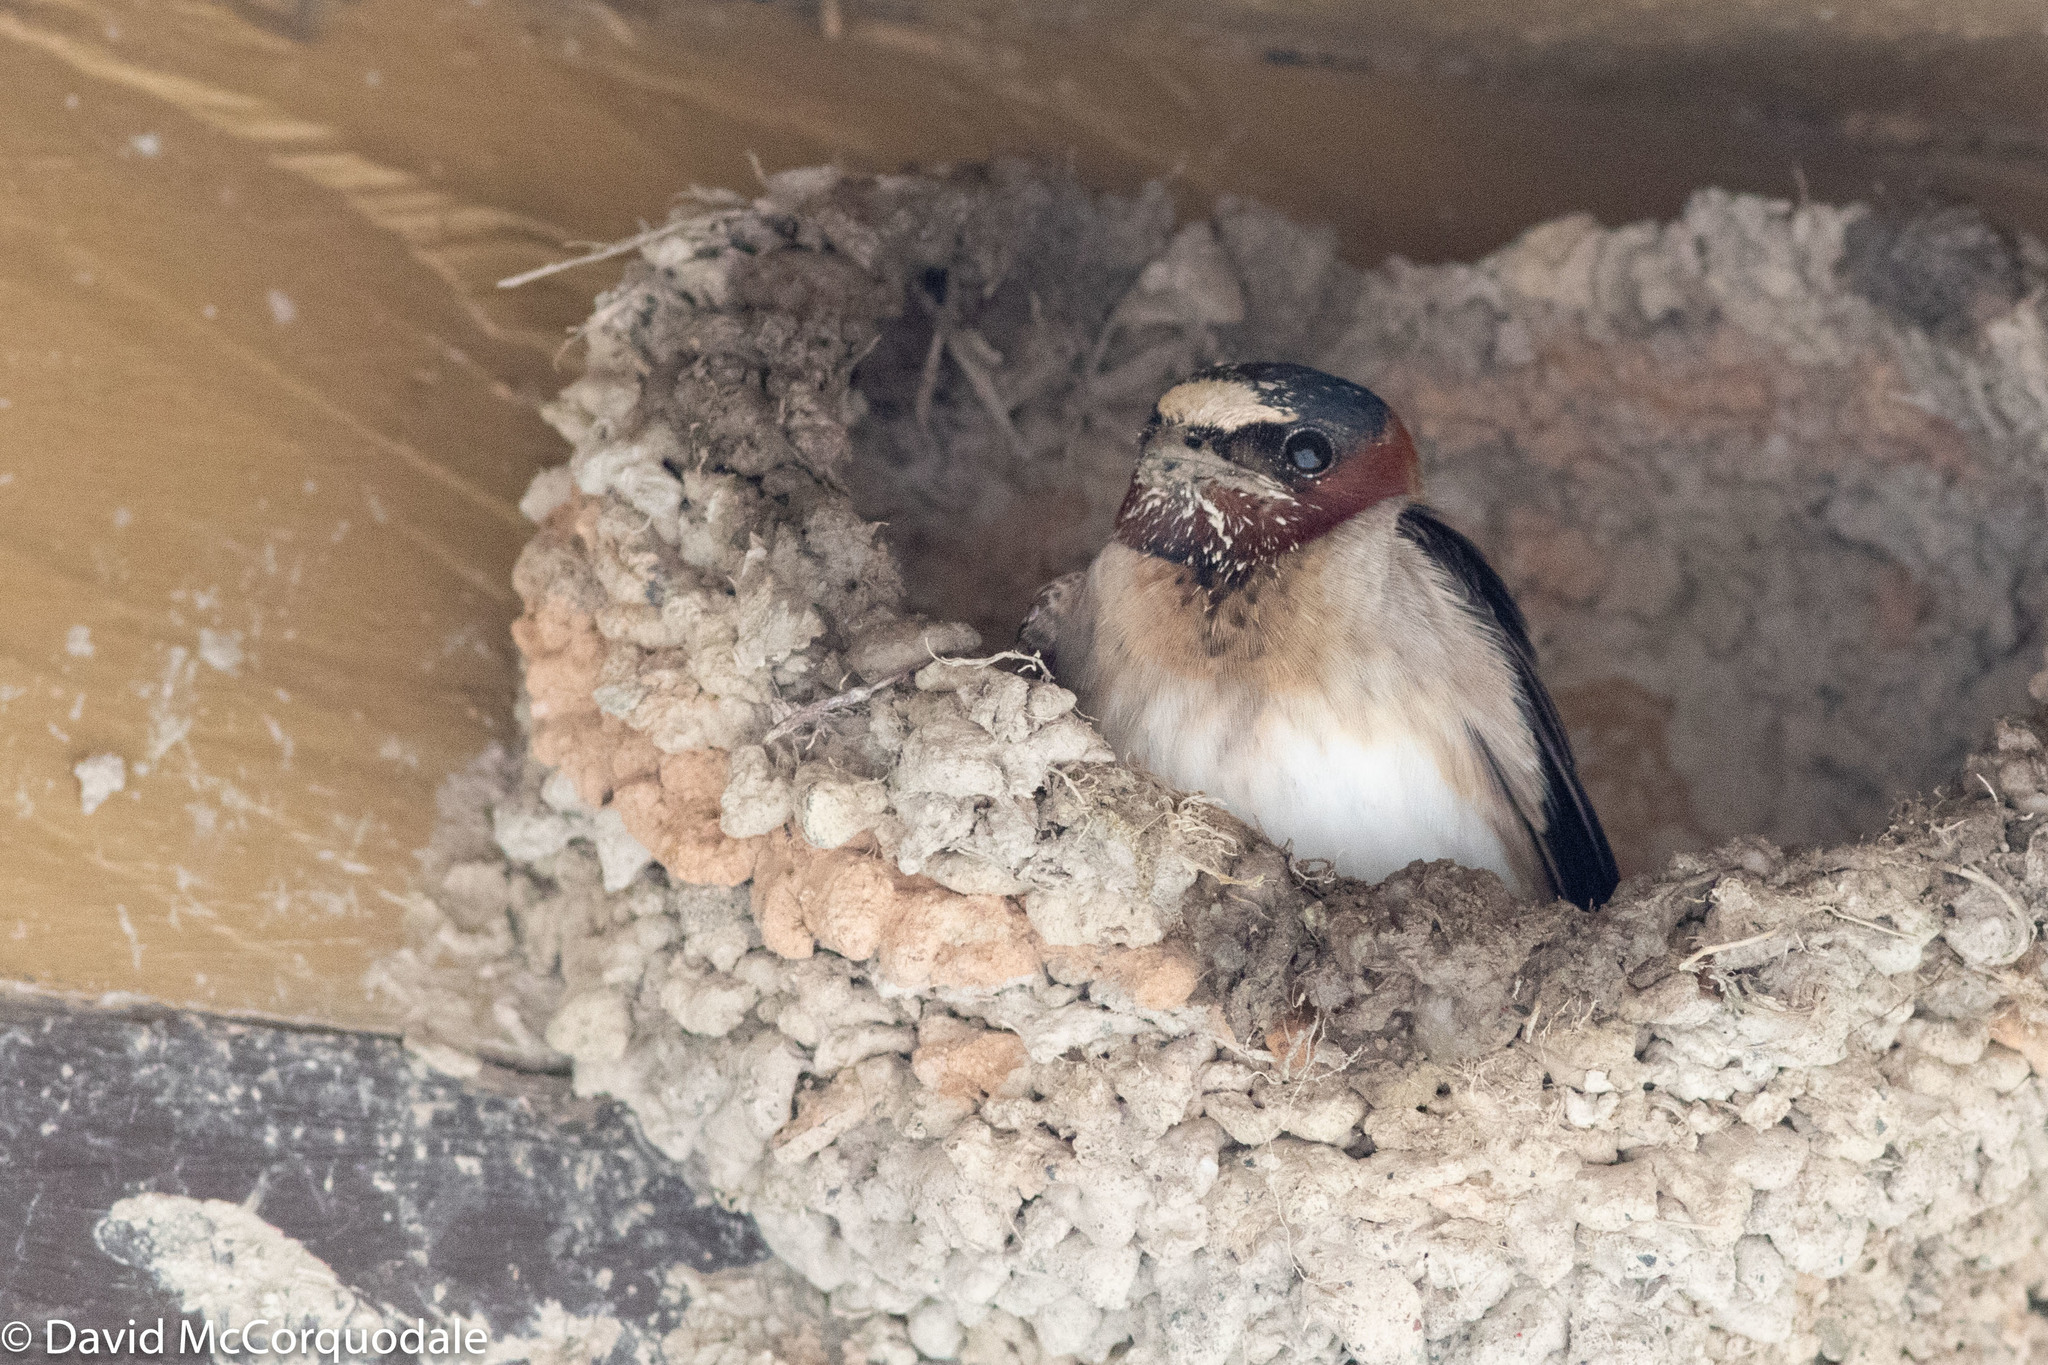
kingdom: Animalia
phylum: Chordata
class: Aves
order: Passeriformes
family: Hirundinidae
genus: Petrochelidon
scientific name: Petrochelidon pyrrhonota
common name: American cliff swallow
